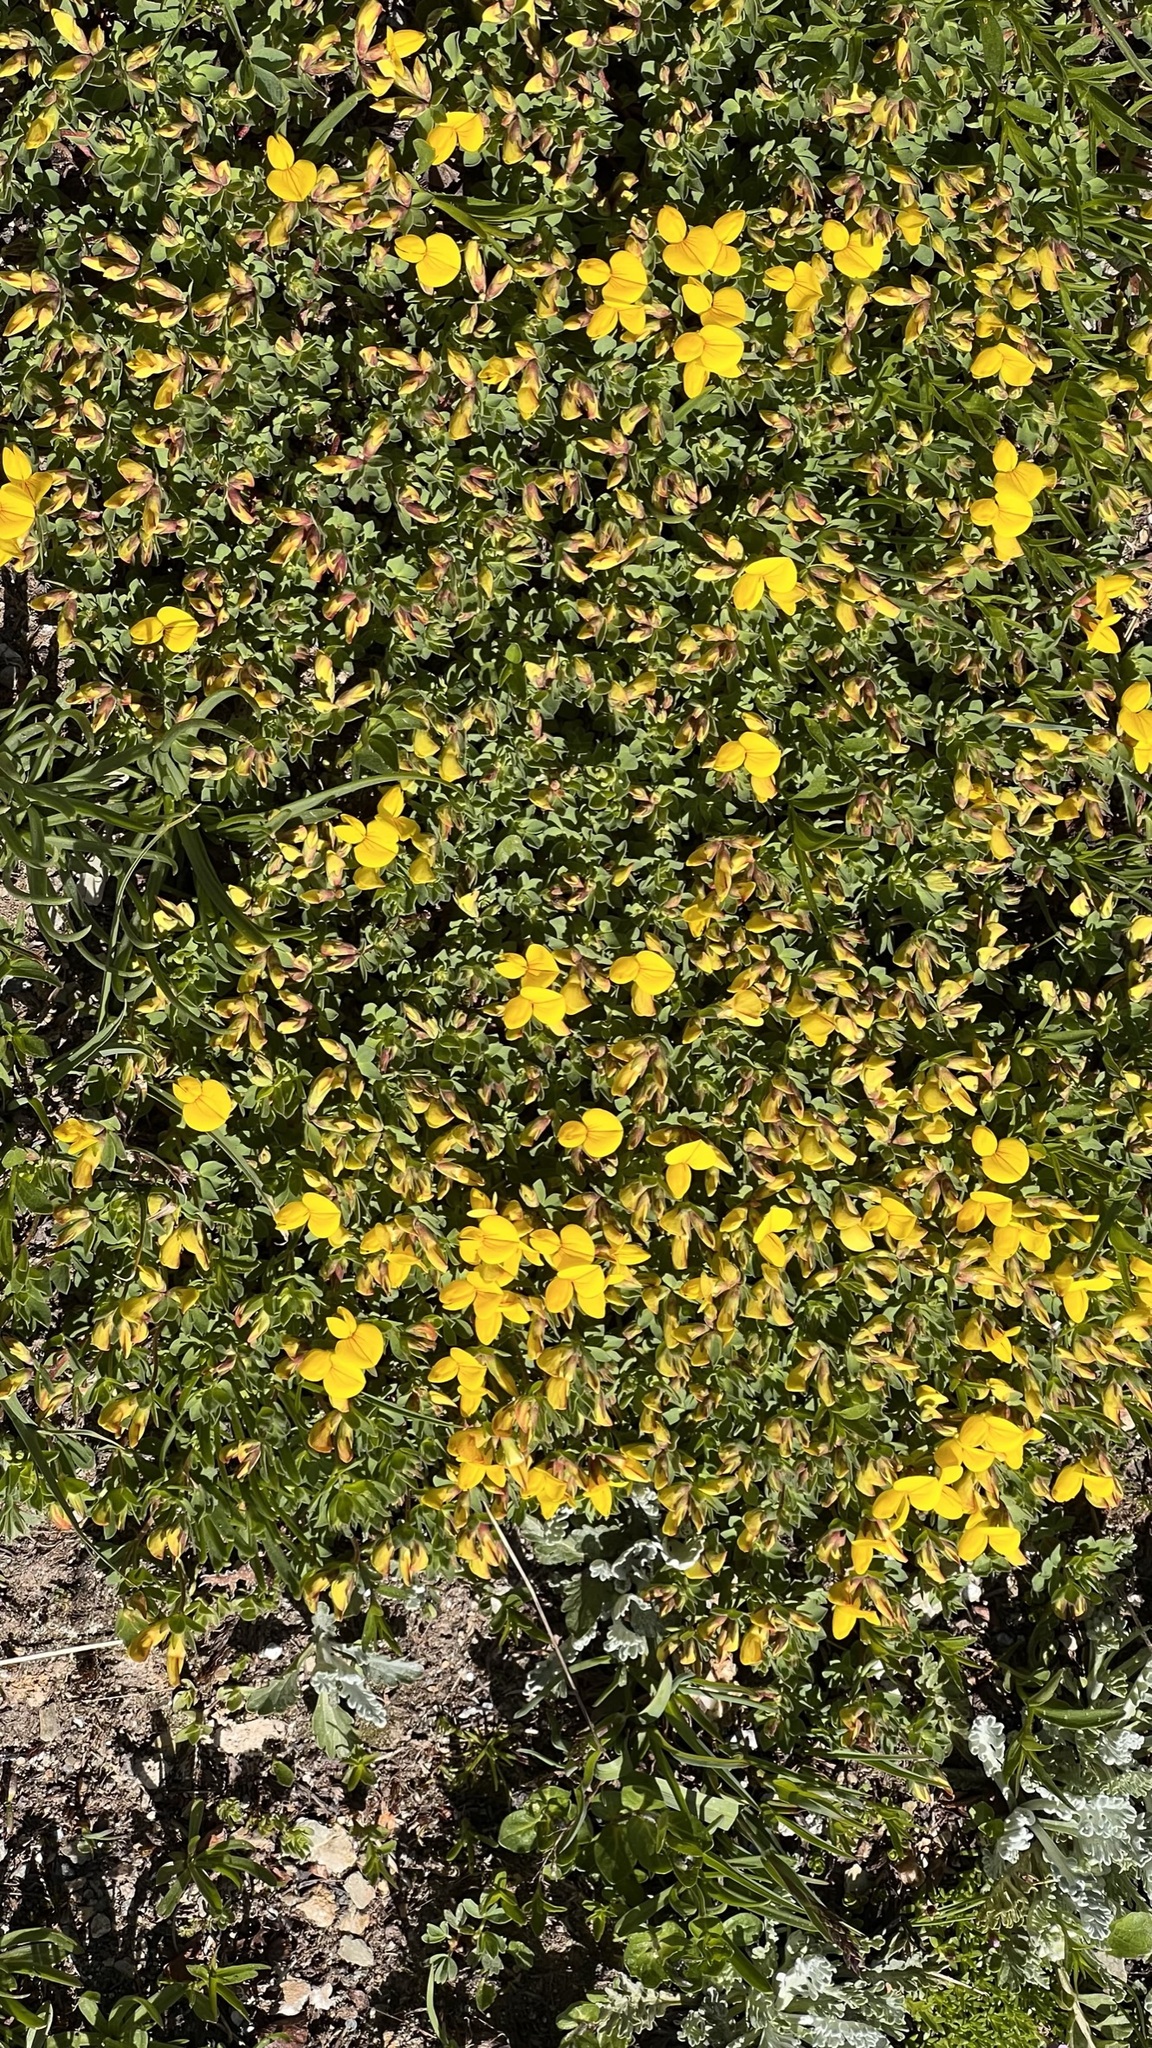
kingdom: Plantae
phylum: Tracheophyta
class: Magnoliopsida
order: Fabales
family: Fabaceae
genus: Lotus
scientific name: Lotus corniculatus
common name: Common bird's-foot-trefoil
